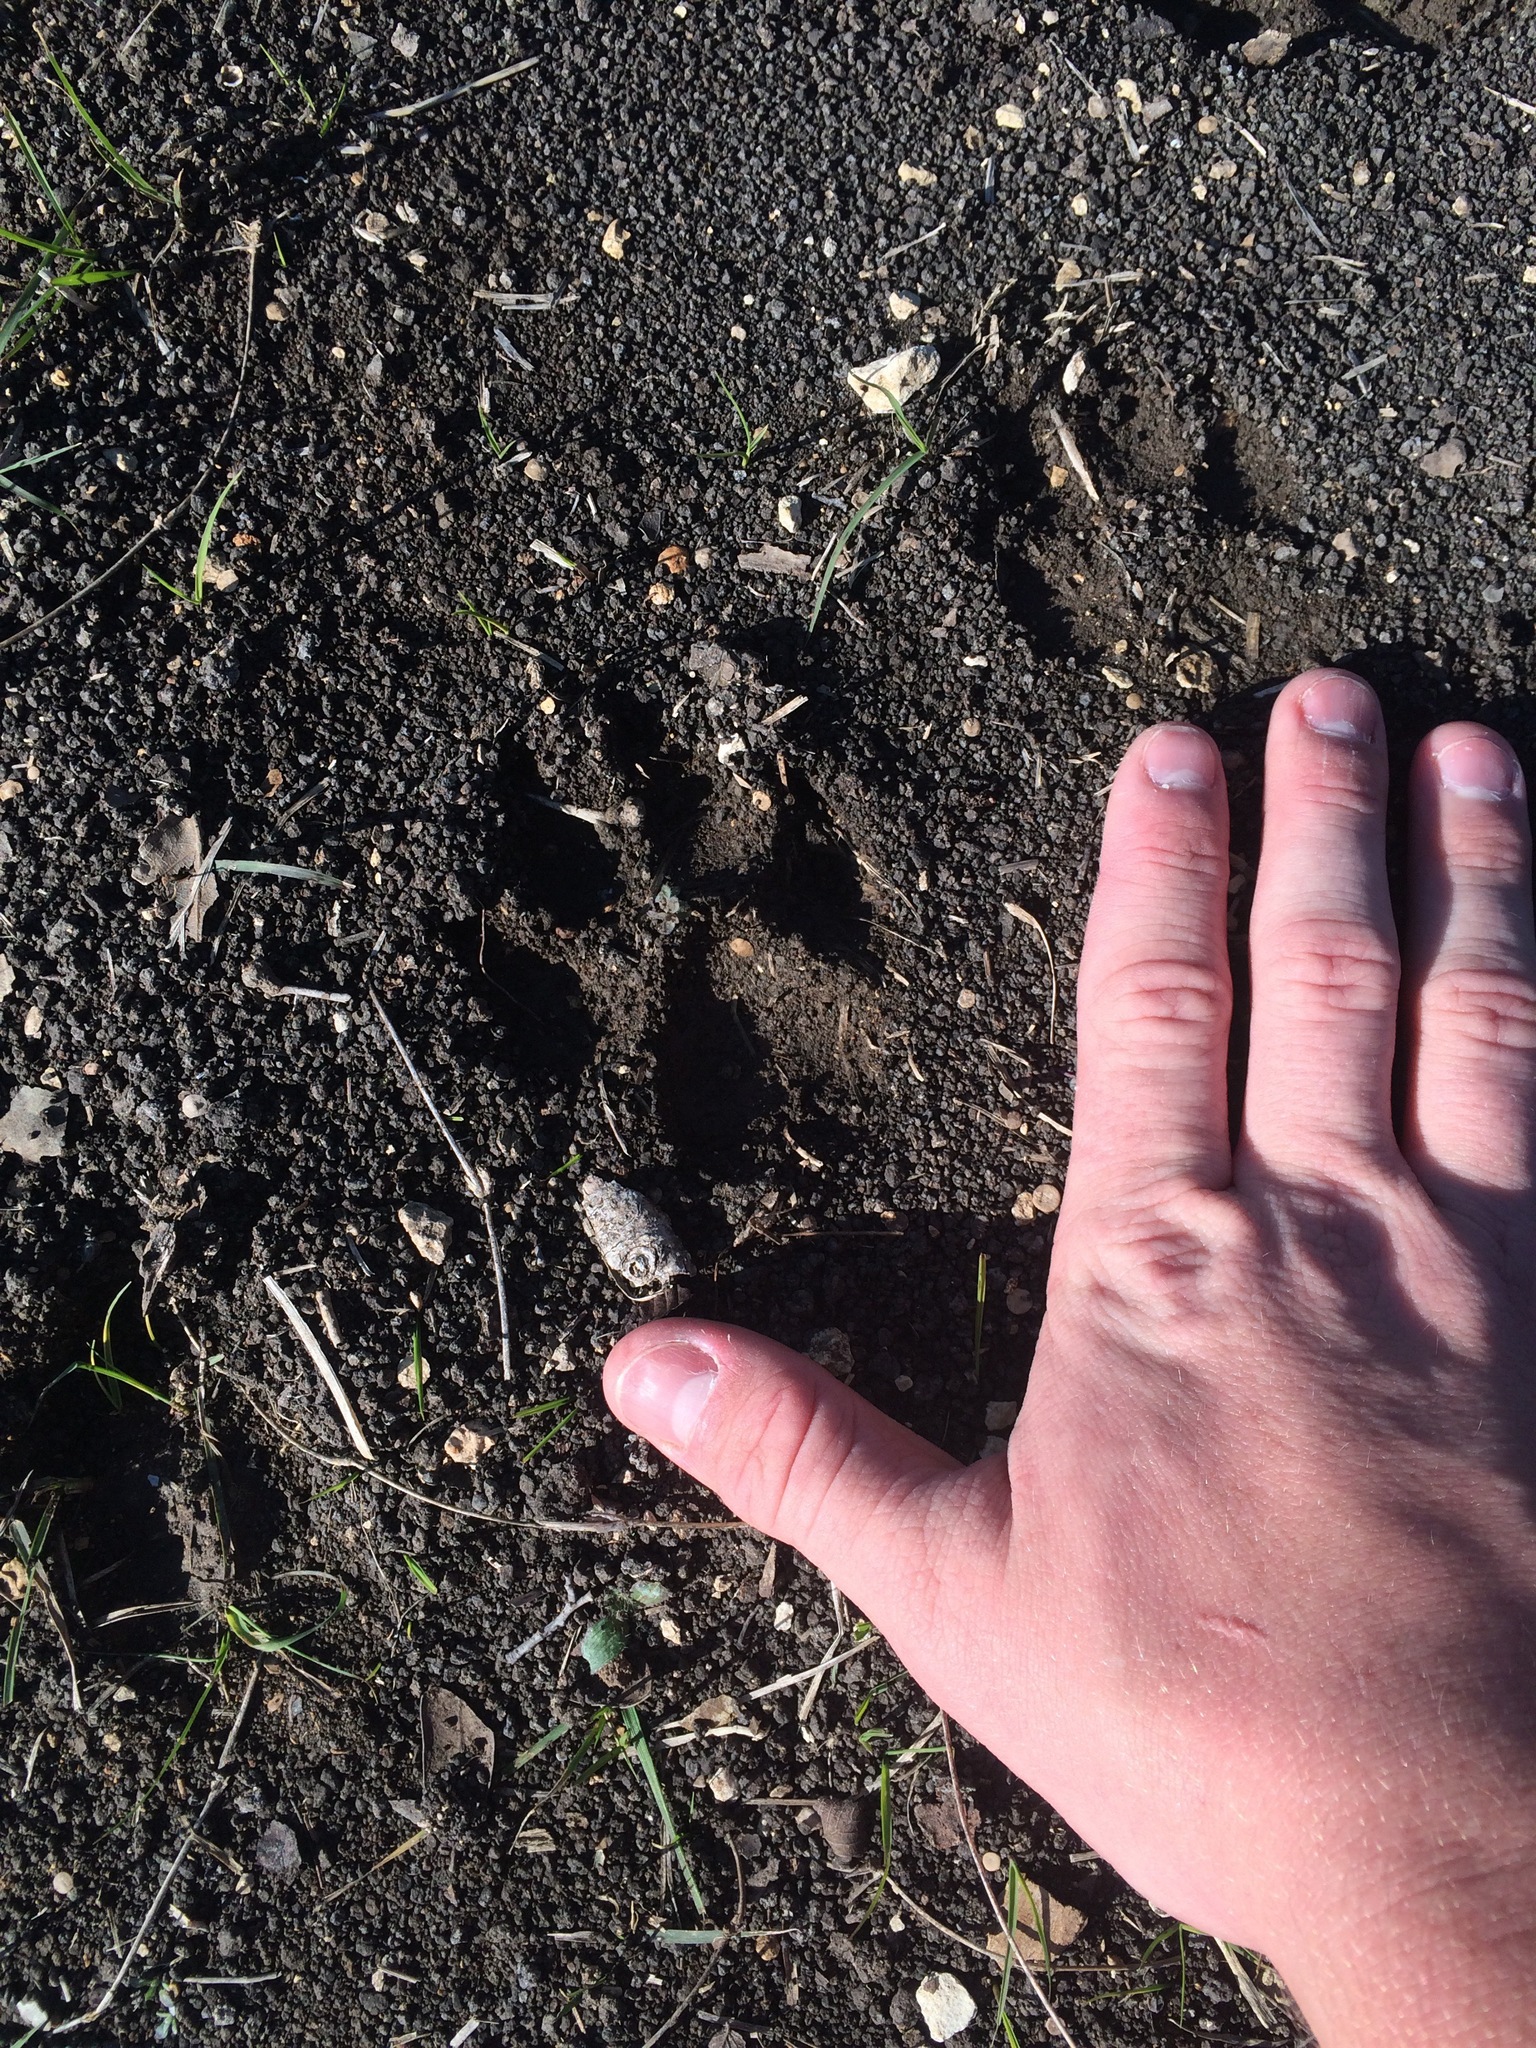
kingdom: Animalia
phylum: Chordata
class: Mammalia
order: Carnivora
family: Canidae
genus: Canis
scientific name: Canis latrans
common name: Coyote
